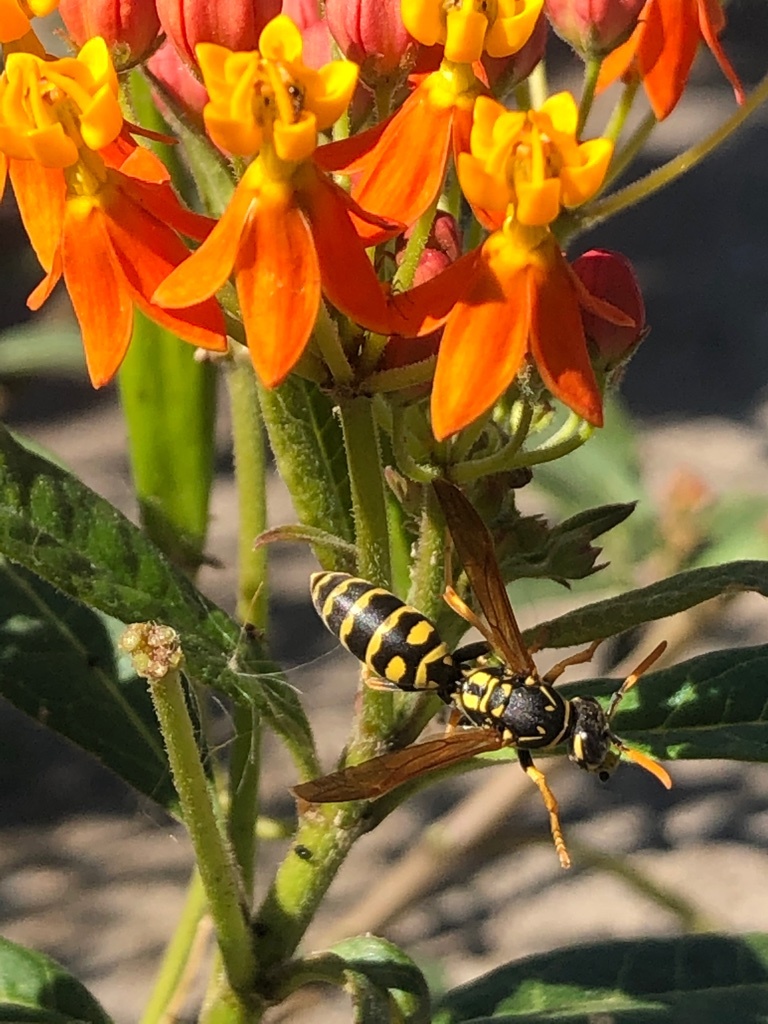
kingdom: Animalia
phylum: Arthropoda
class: Insecta
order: Hymenoptera
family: Eumenidae
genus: Polistes
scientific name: Polistes dominula
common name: Paper wasp
